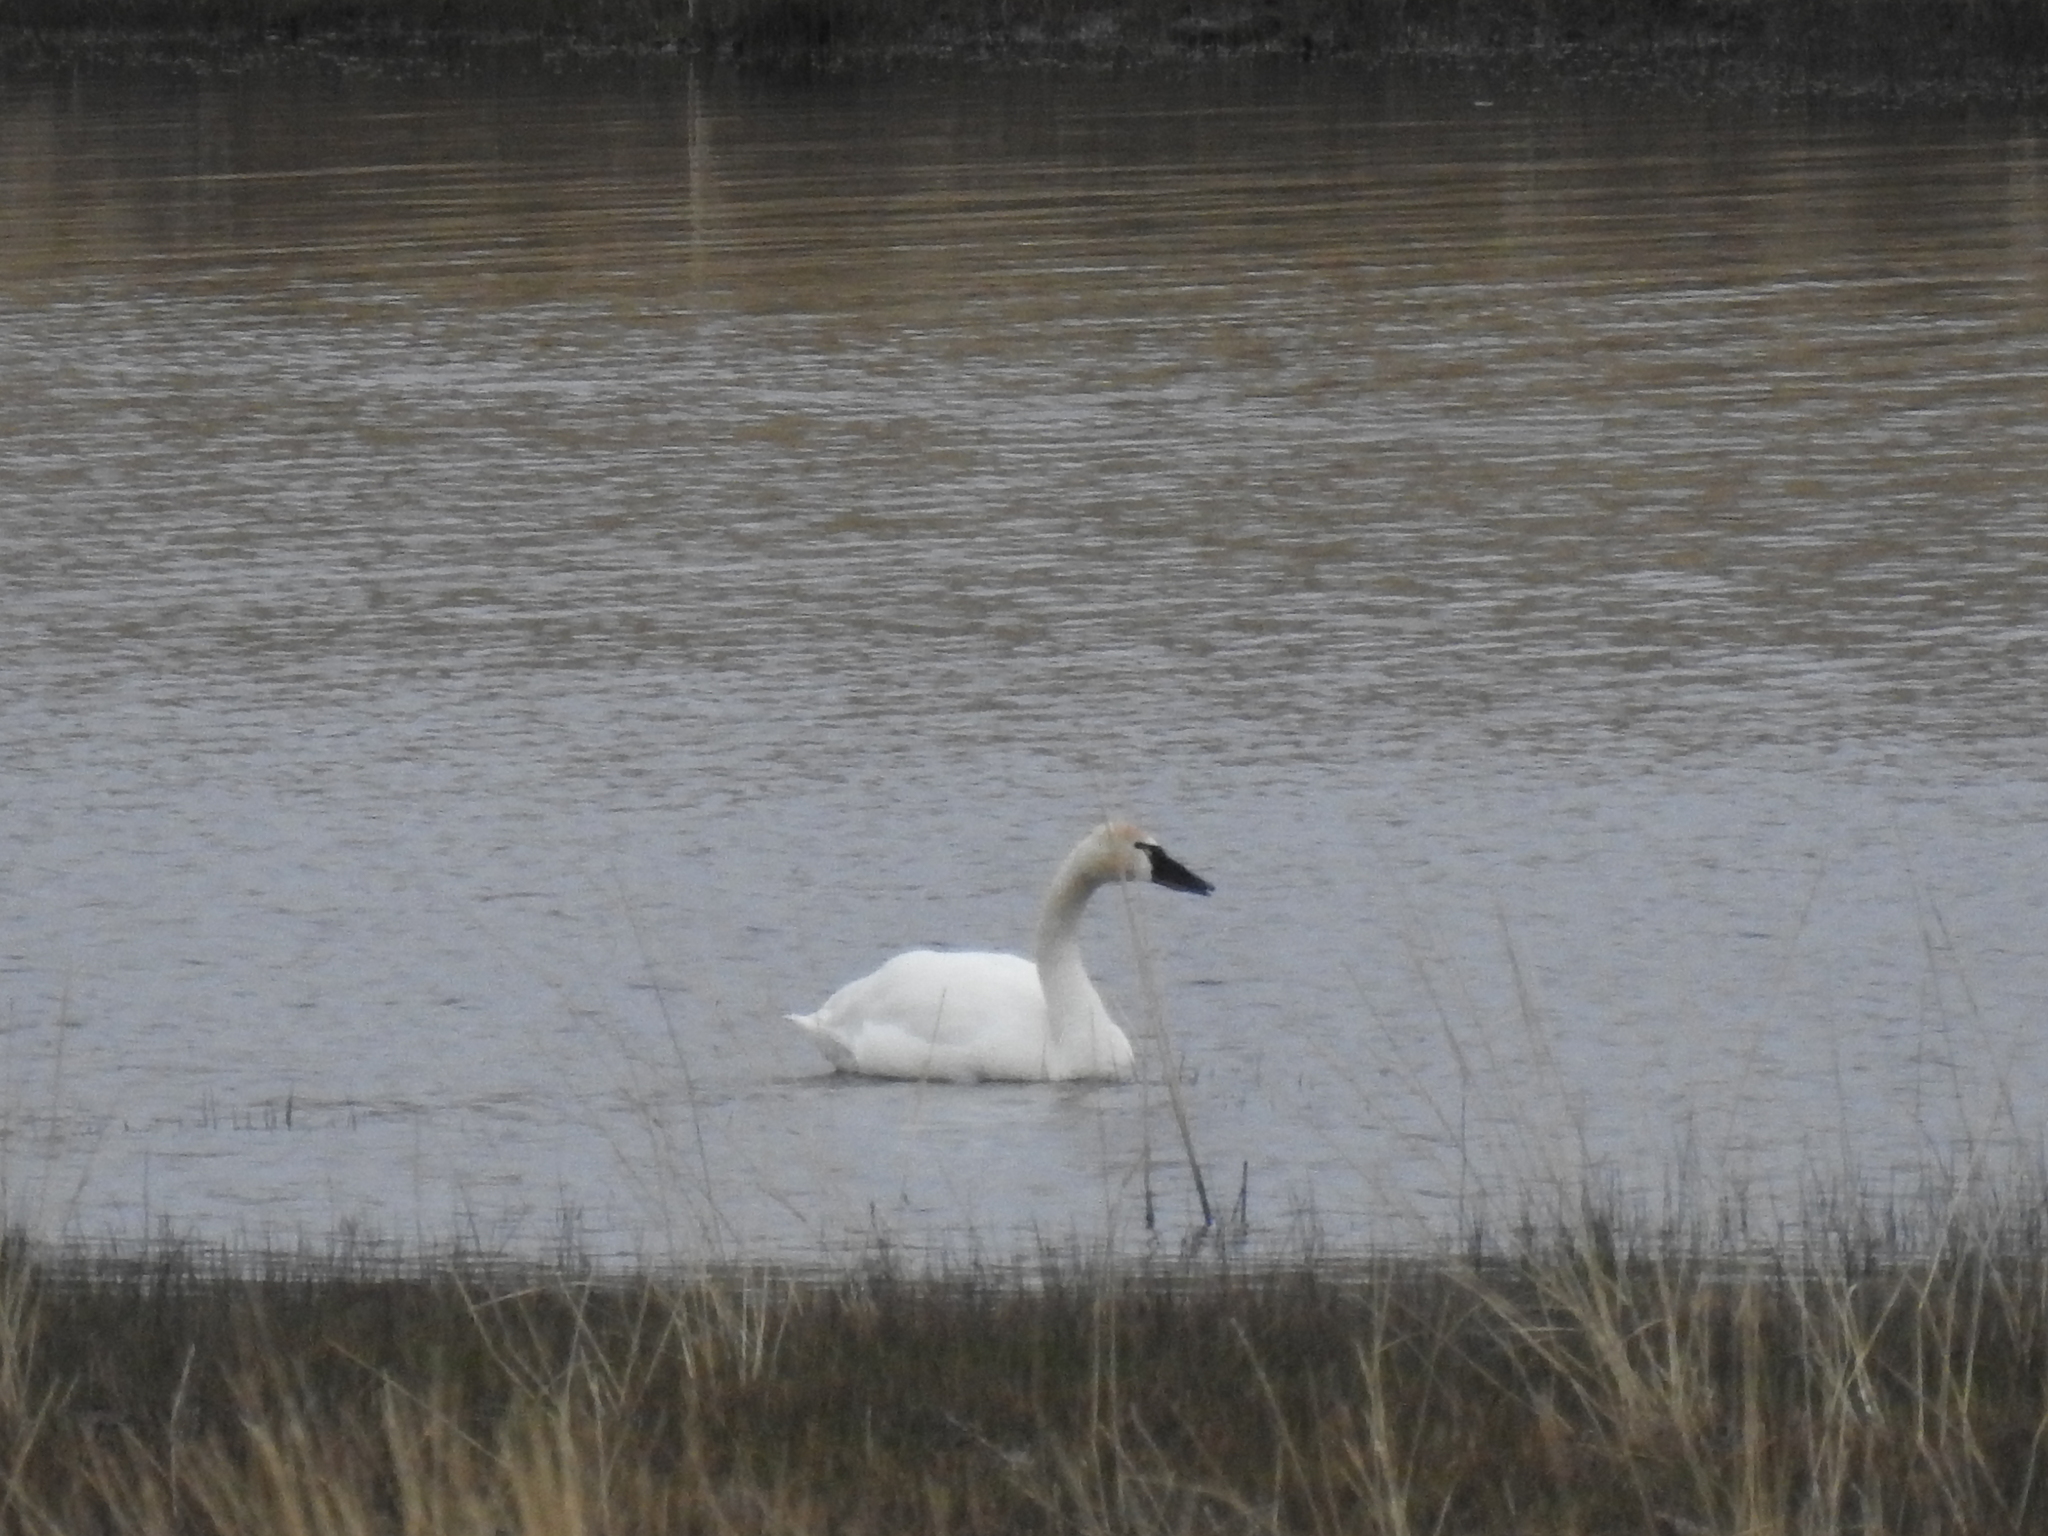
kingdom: Animalia
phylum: Chordata
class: Aves
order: Anseriformes
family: Anatidae
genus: Cygnus
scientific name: Cygnus columbianus
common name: Tundra swan
